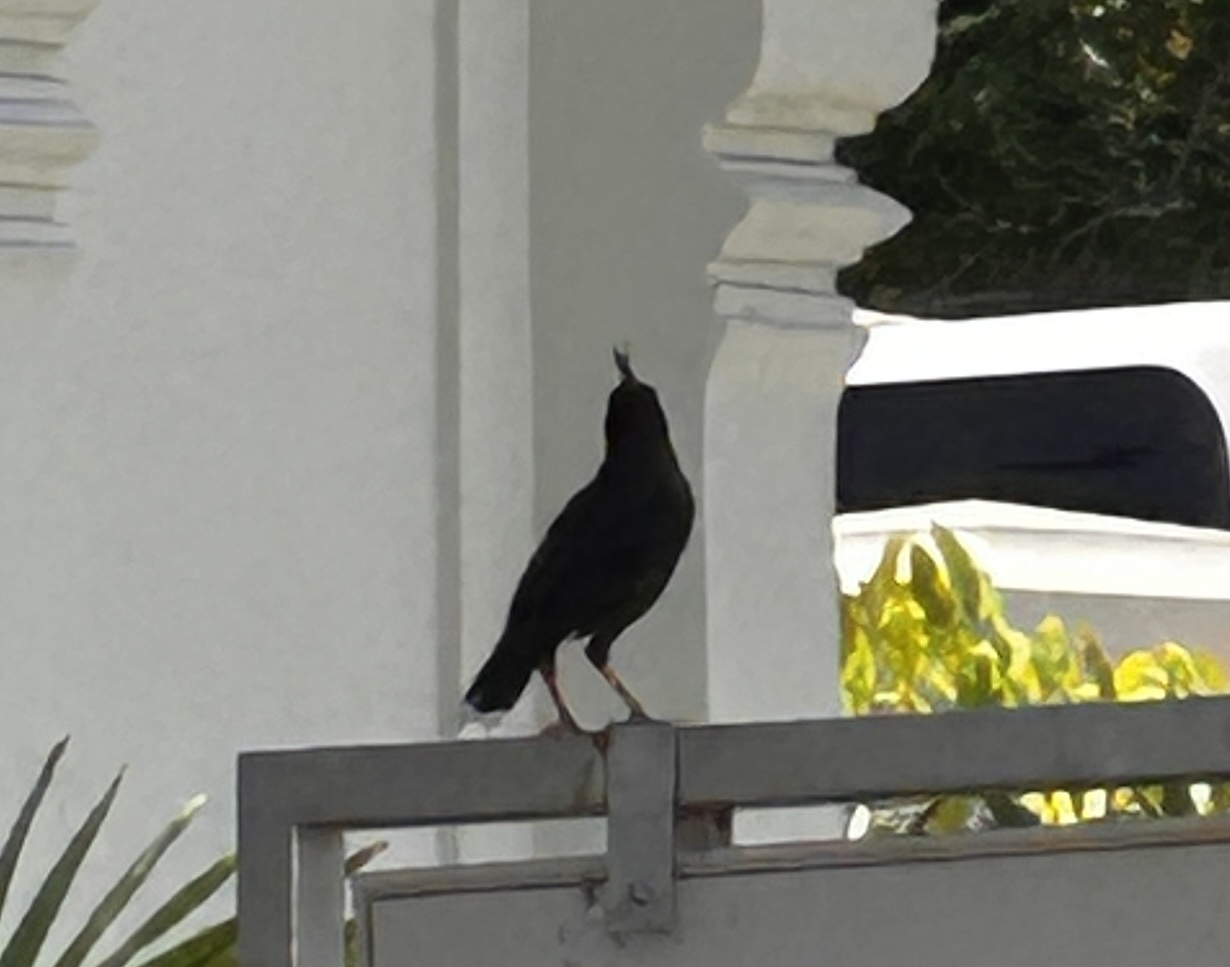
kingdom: Animalia
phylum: Chordata
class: Aves
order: Passeriformes
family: Sturnidae
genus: Acridotheres
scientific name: Acridotheres grandis
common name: Great myna
